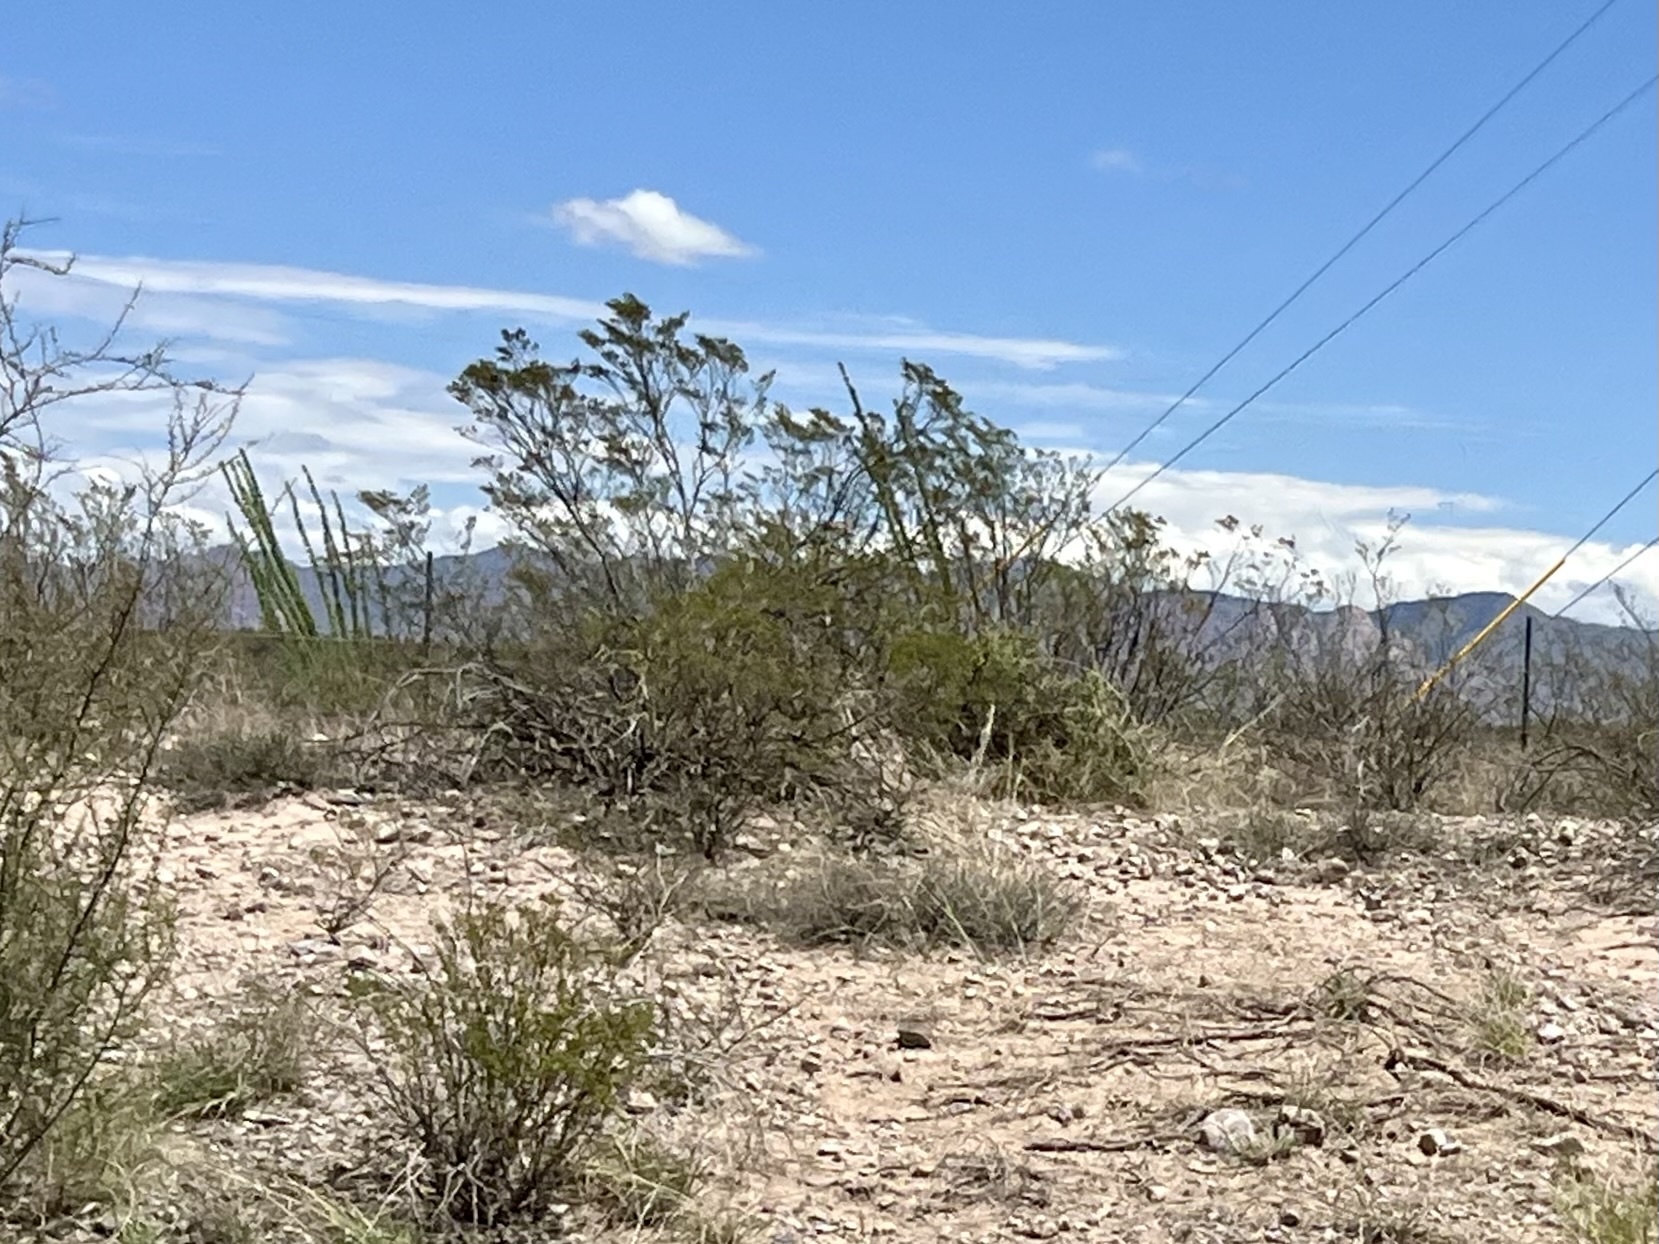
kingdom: Plantae
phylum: Tracheophyta
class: Magnoliopsida
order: Zygophyllales
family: Zygophyllaceae
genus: Larrea
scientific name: Larrea tridentata
